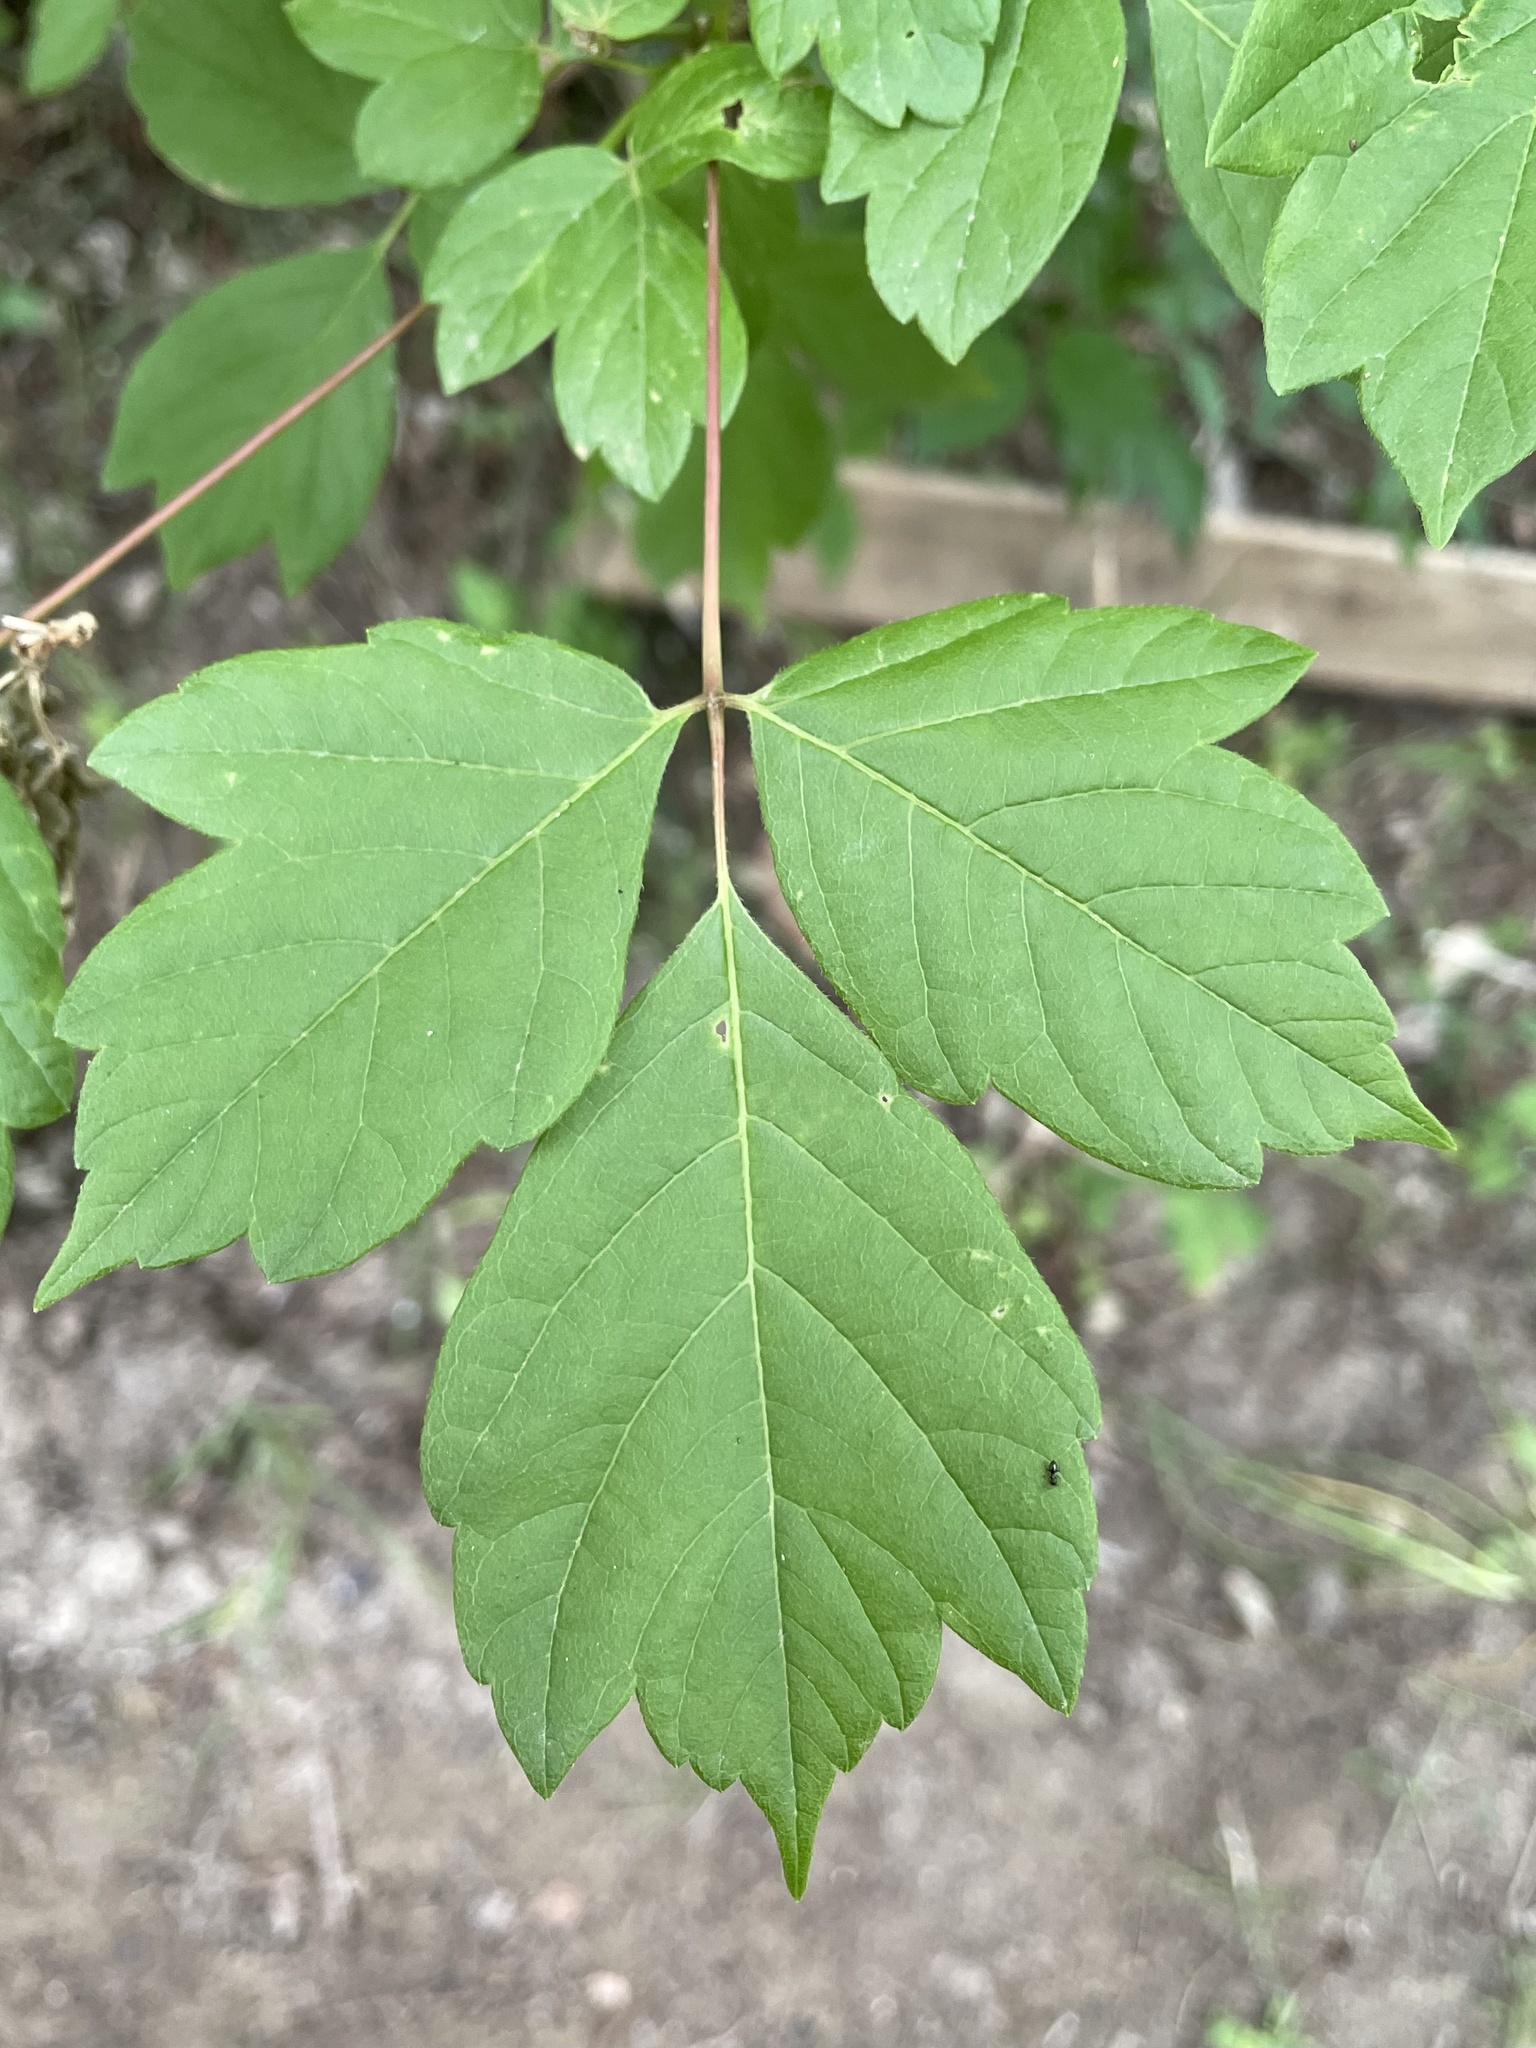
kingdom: Plantae
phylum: Tracheophyta
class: Magnoliopsida
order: Sapindales
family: Sapindaceae
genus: Acer
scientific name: Acer negundo
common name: Ashleaf maple
